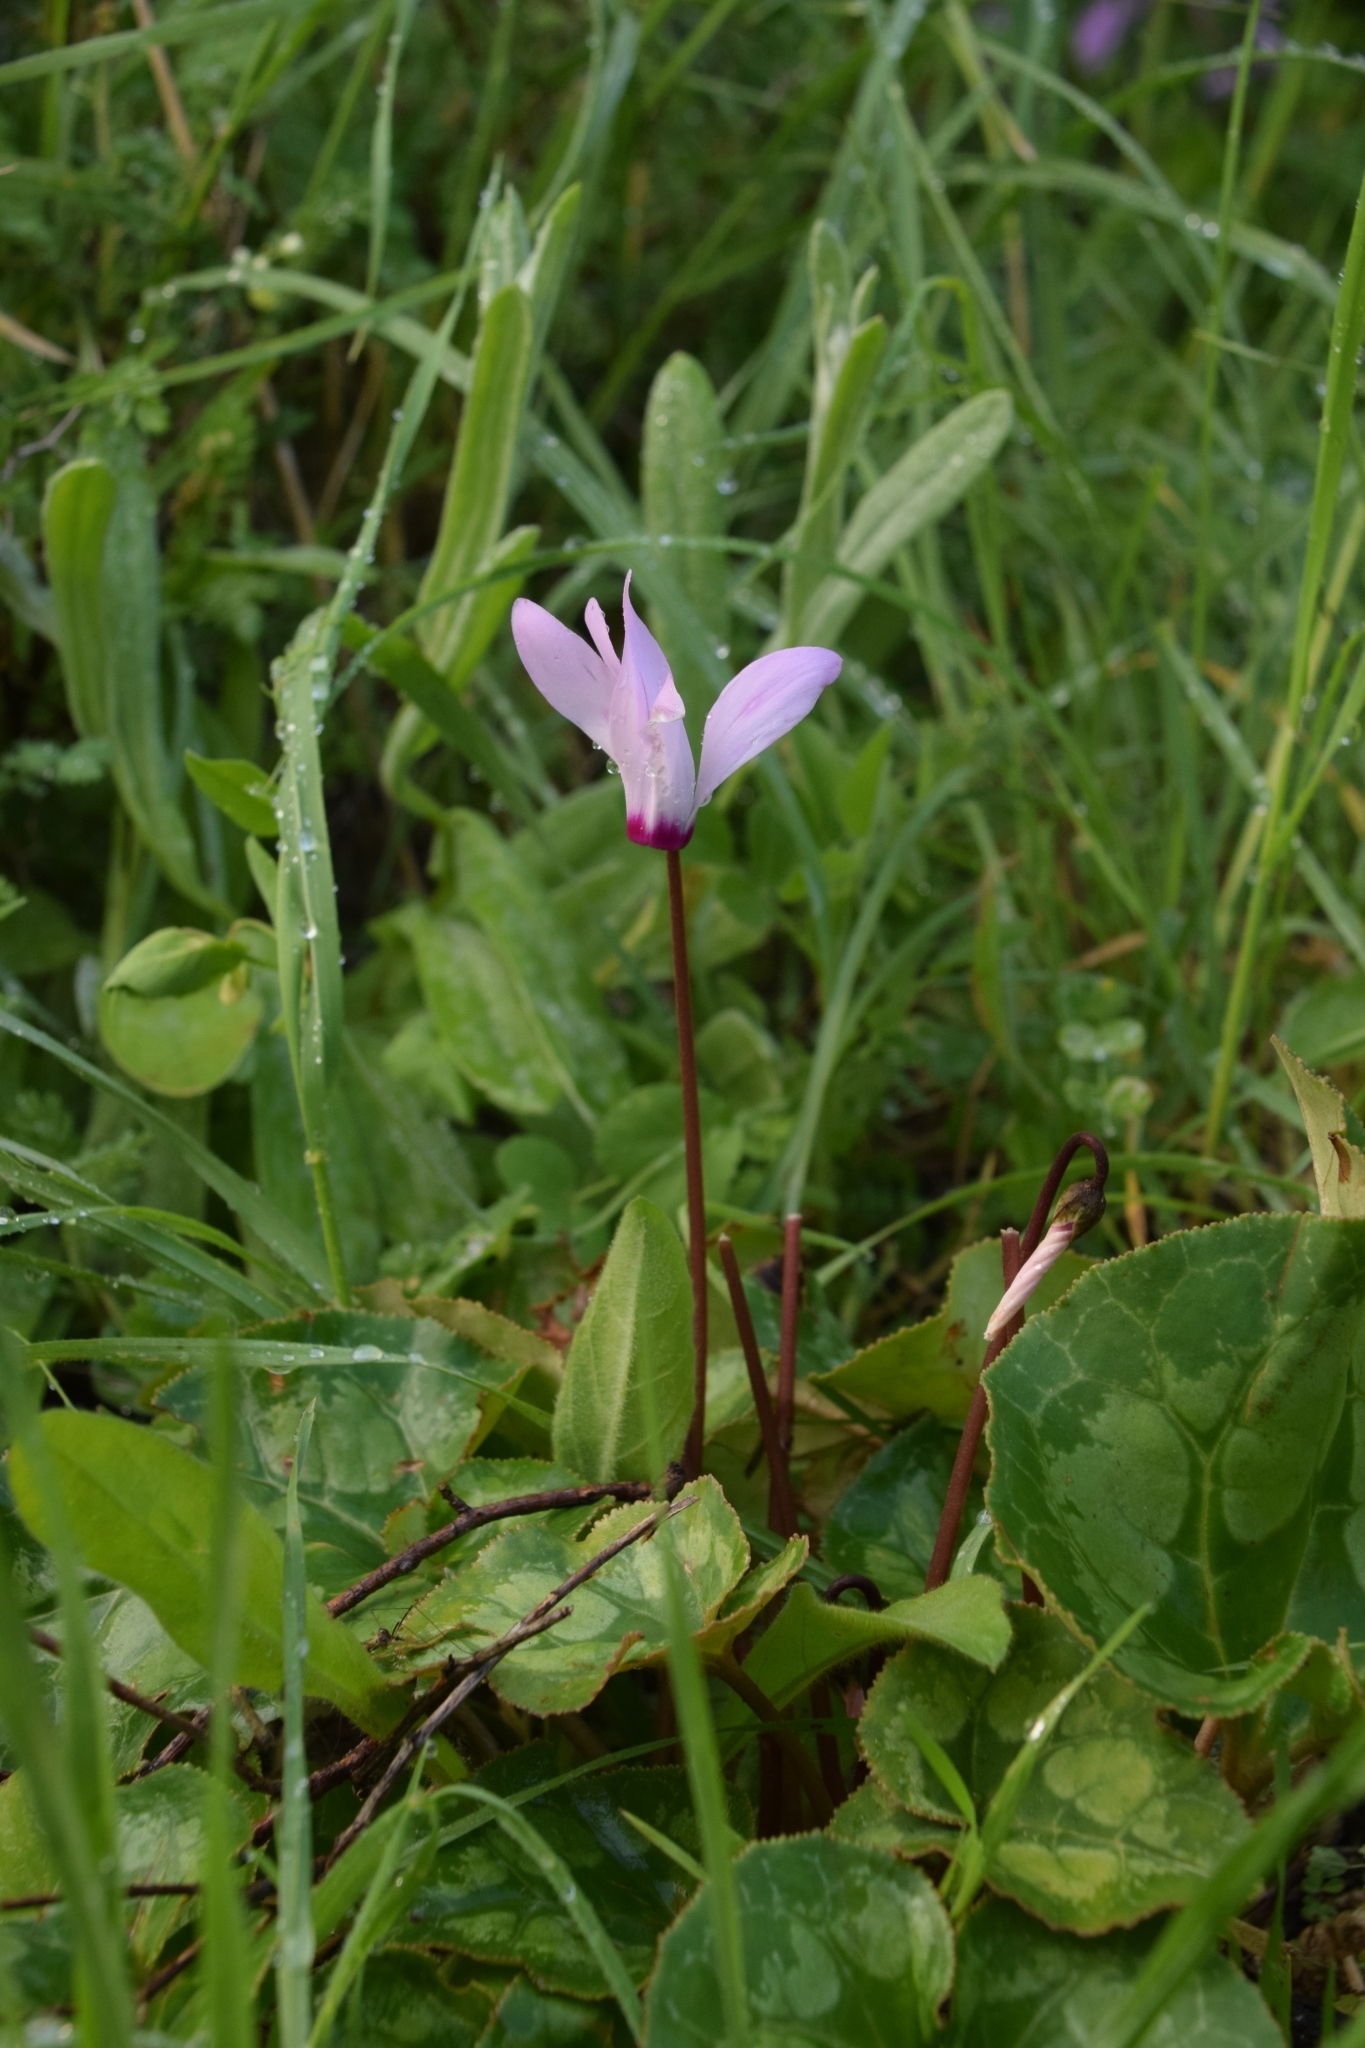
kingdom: Plantae
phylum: Tracheophyta
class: Magnoliopsida
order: Ericales
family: Primulaceae
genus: Cyclamen
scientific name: Cyclamen persicum
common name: Florist's cyclamen
